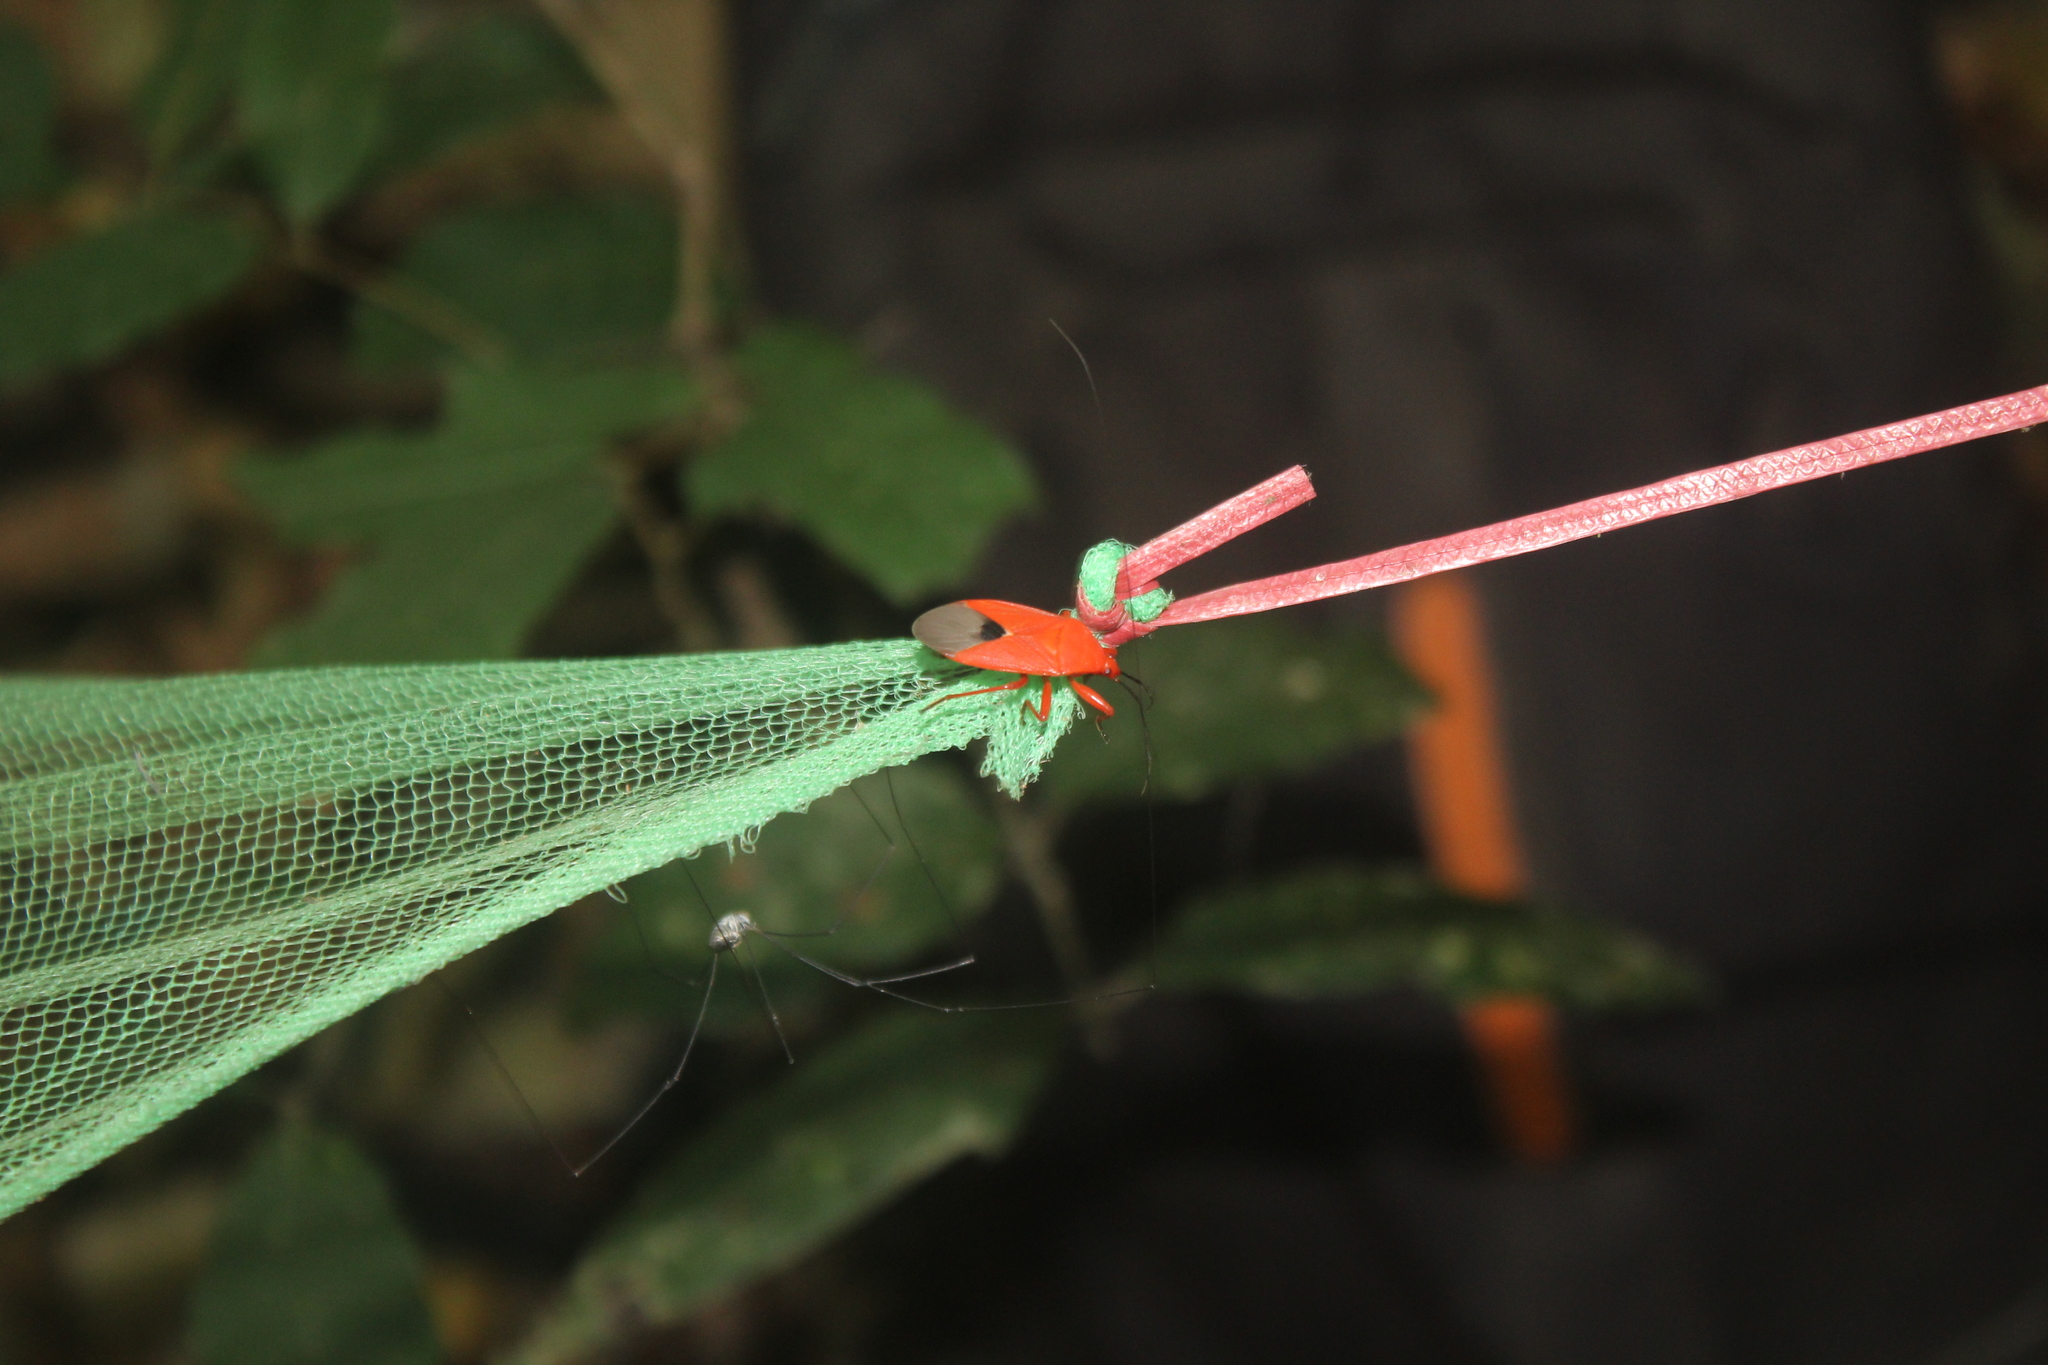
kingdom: Animalia
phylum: Arthropoda
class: Insecta
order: Hemiptera
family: Pyrrhocoridae
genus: Antilochus
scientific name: Antilochus
